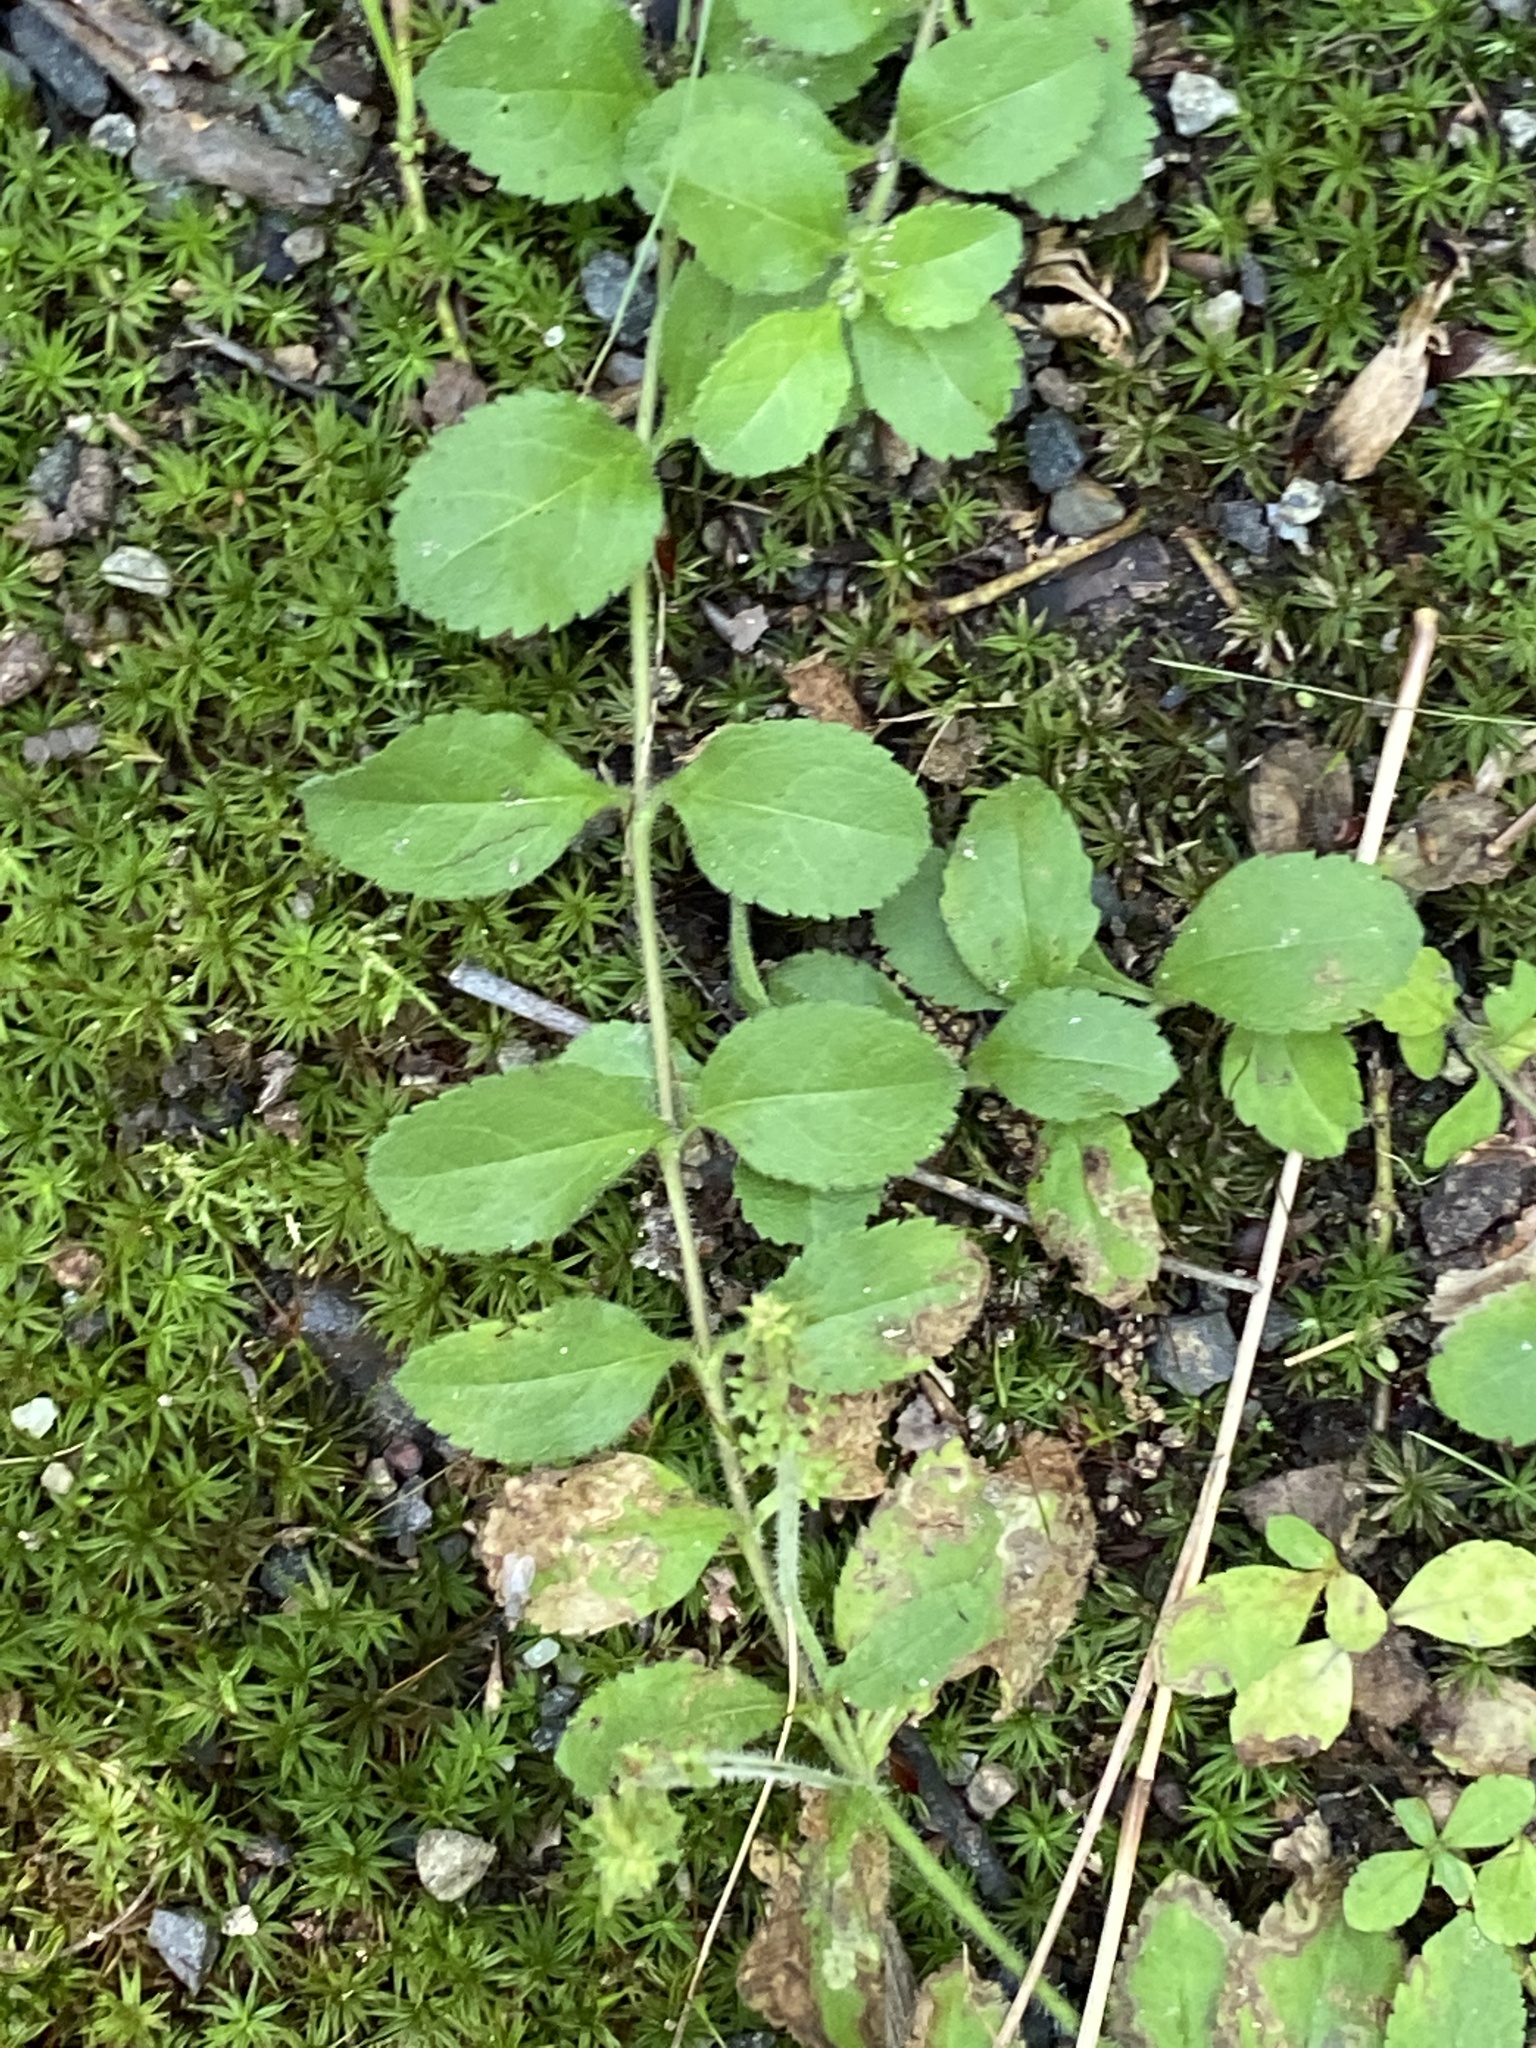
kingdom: Plantae
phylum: Tracheophyta
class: Magnoliopsida
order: Lamiales
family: Plantaginaceae
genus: Veronica
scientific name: Veronica officinalis
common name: Common speedwell
